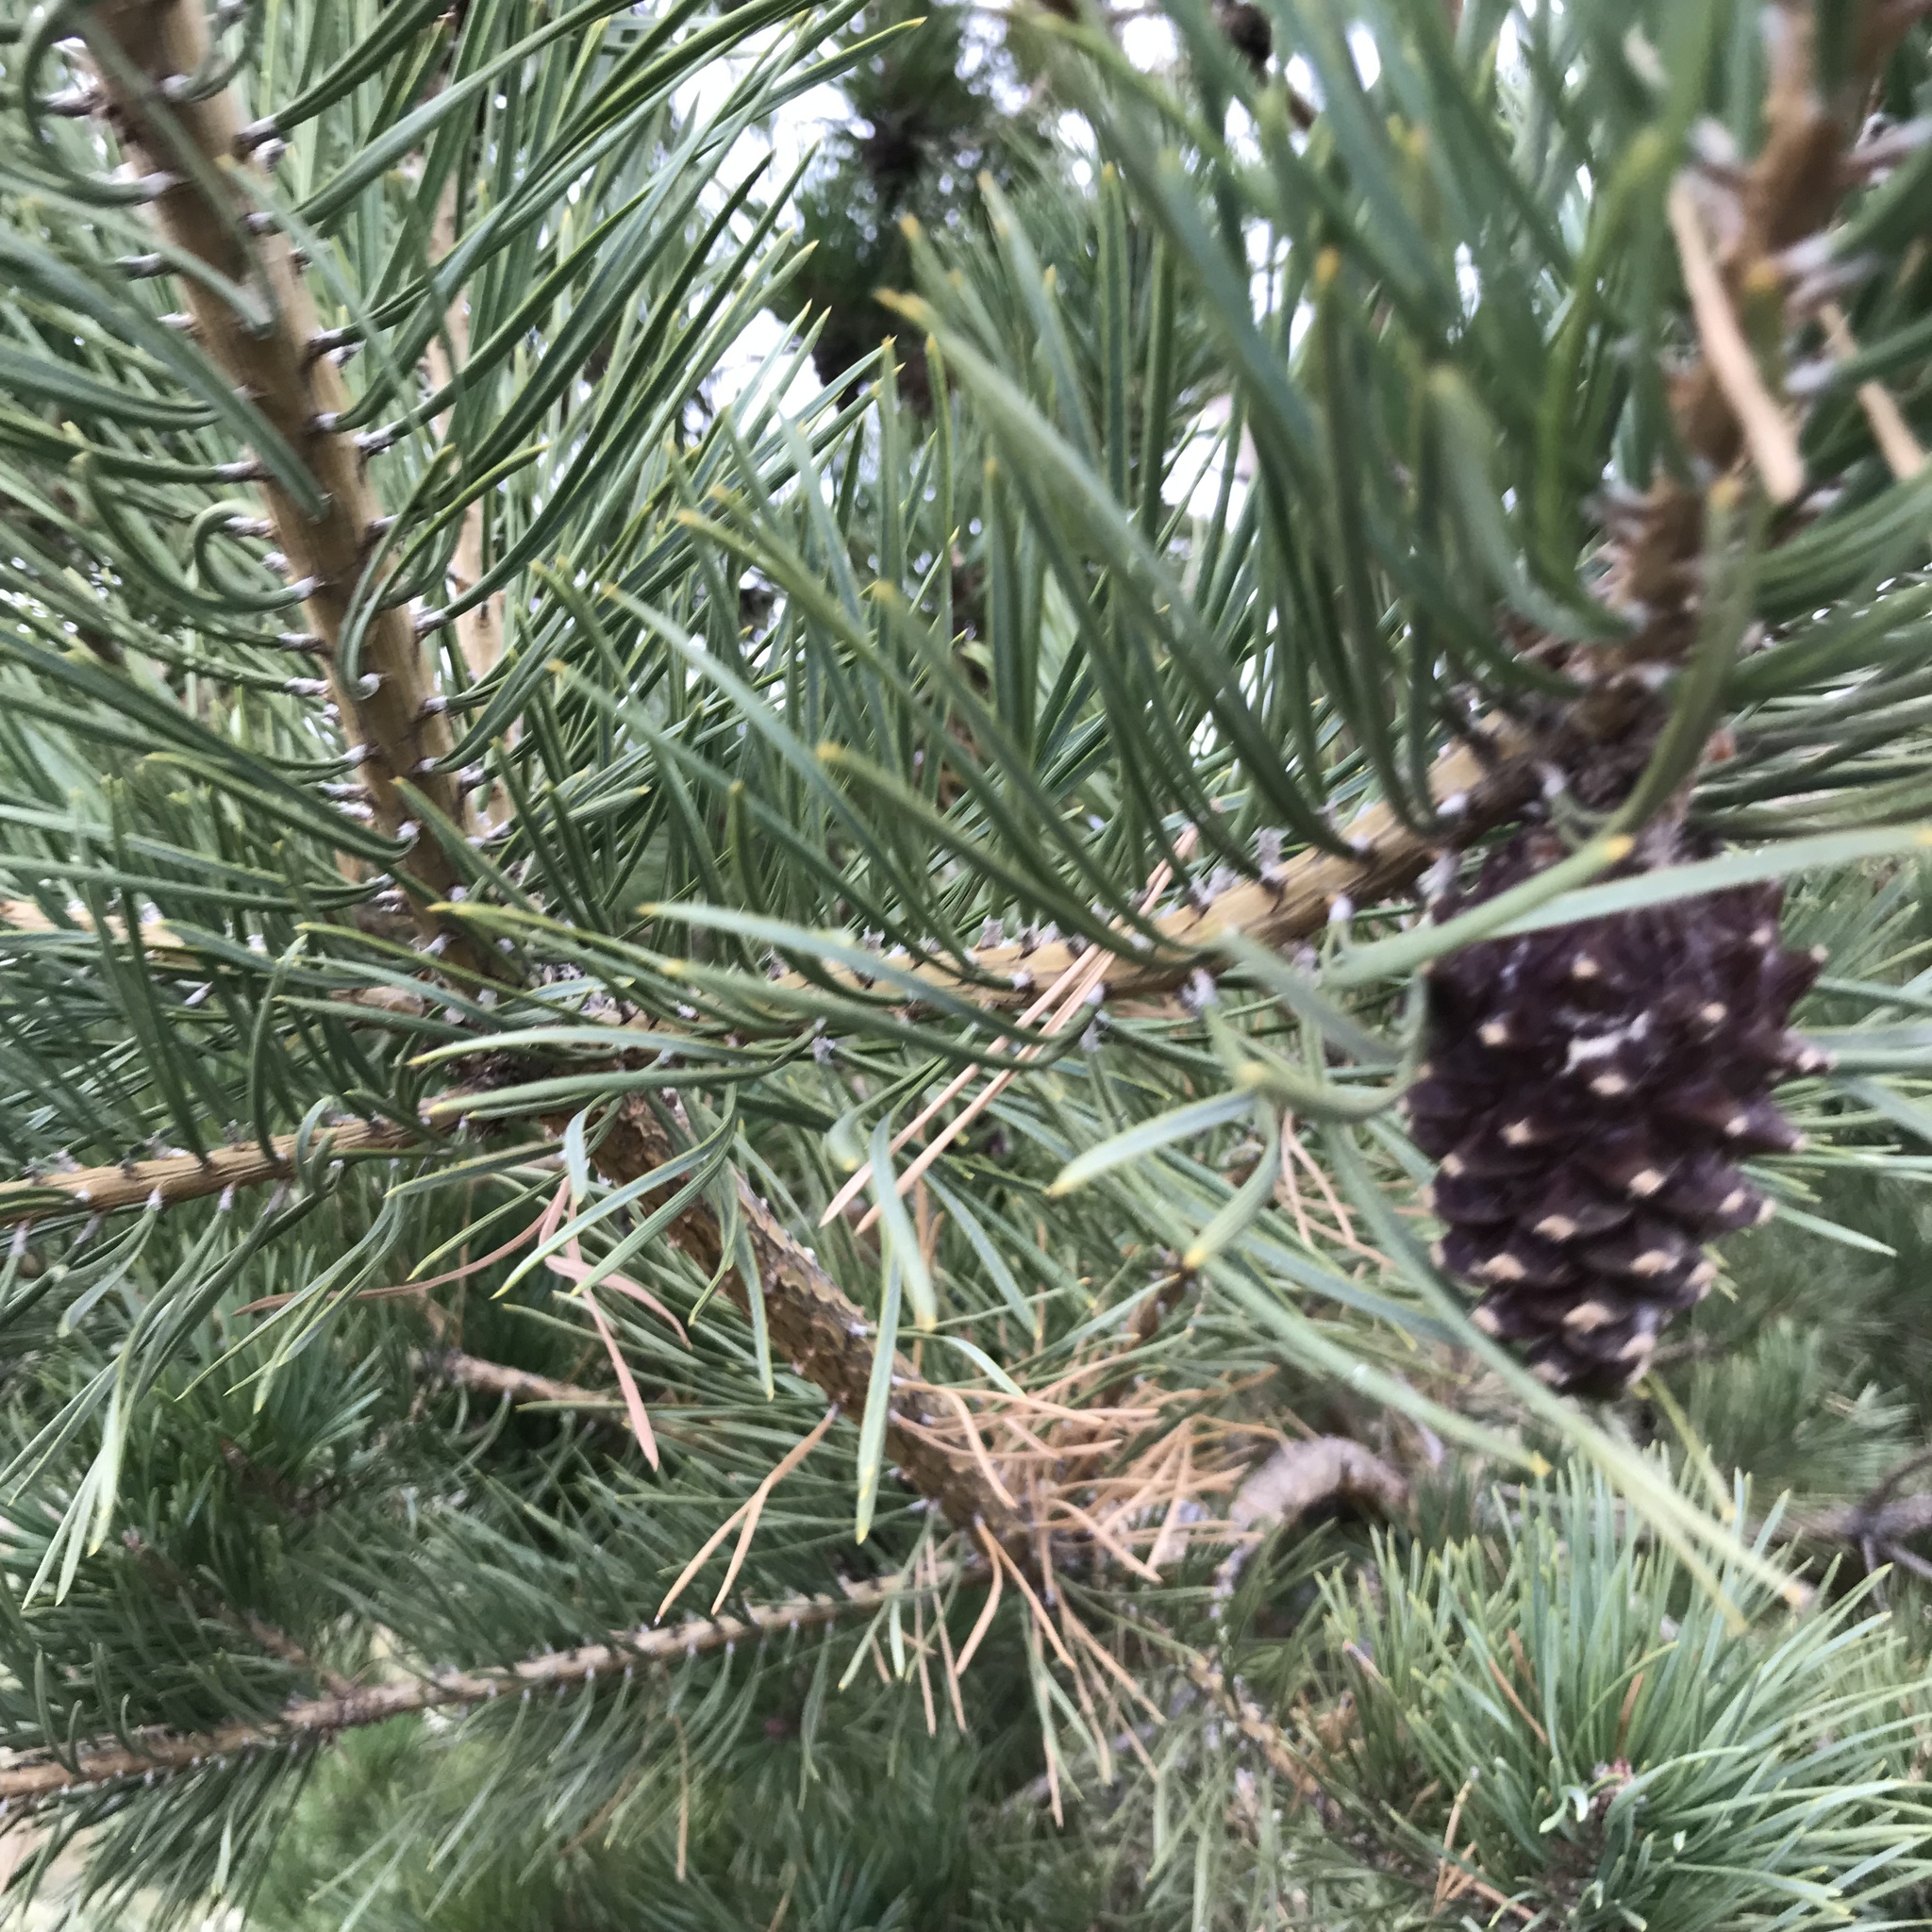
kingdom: Plantae
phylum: Tracheophyta
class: Pinopsida
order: Pinales
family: Pinaceae
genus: Pinus
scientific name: Pinus sylvestris
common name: Scots pine
